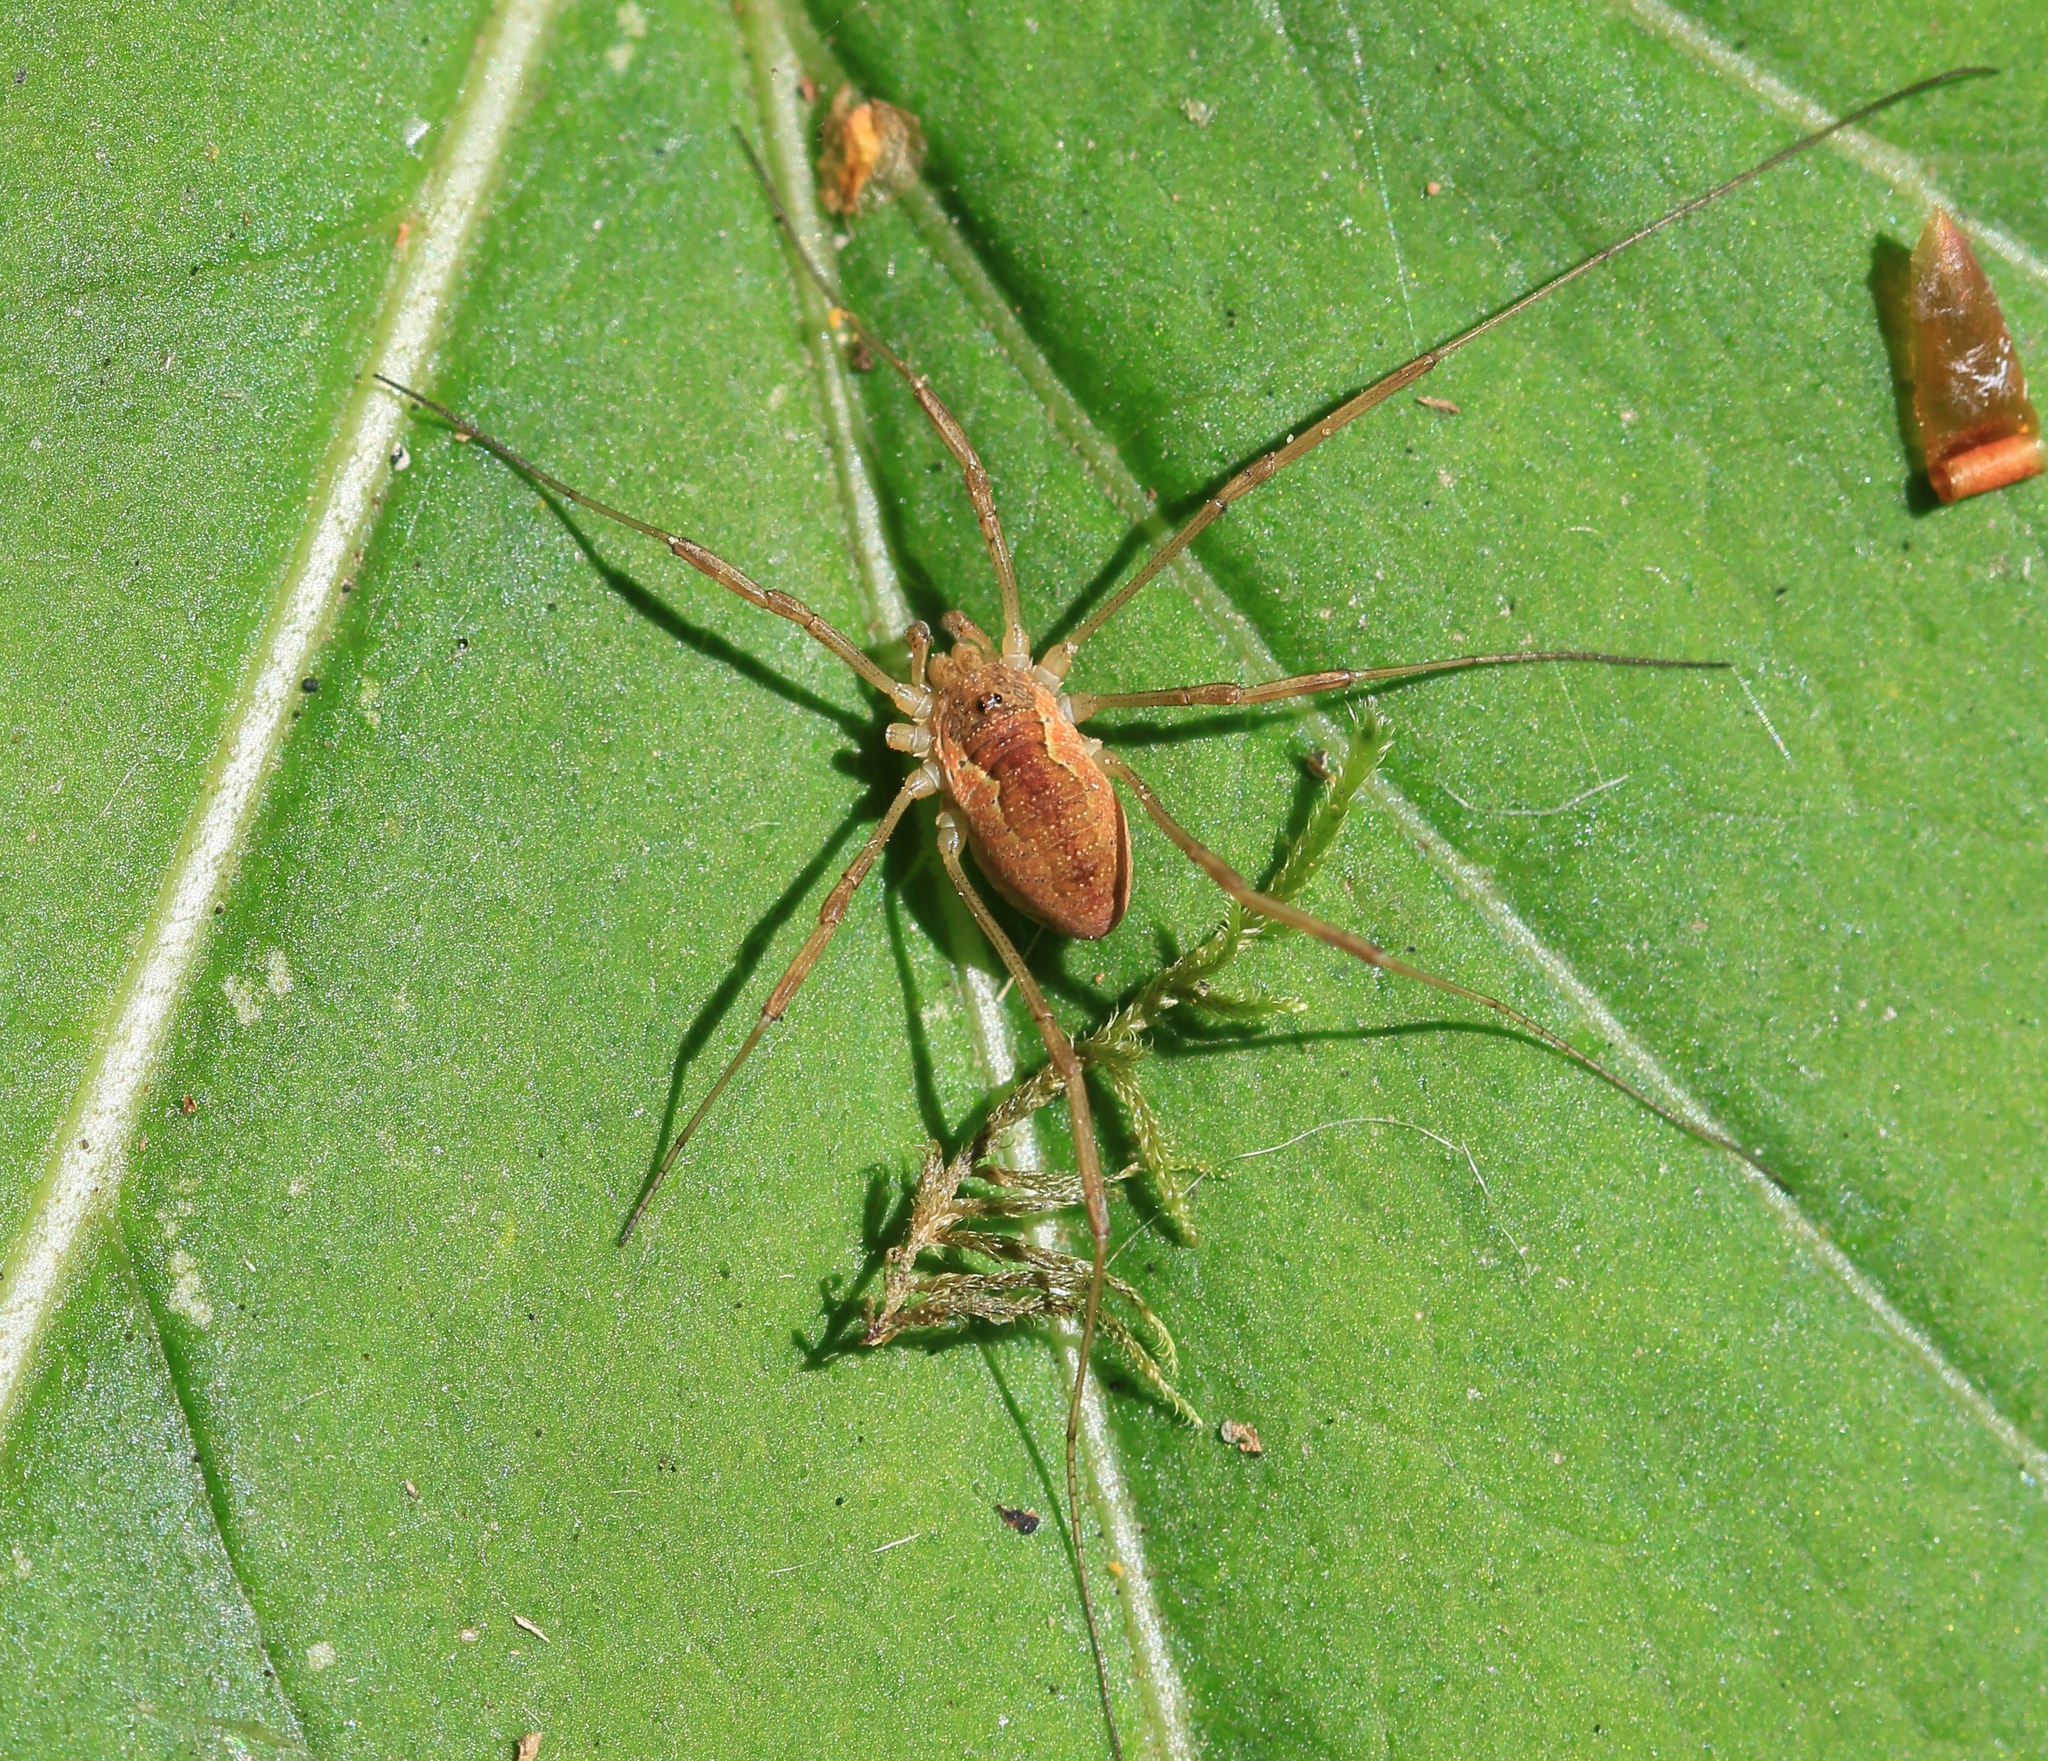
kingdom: Animalia
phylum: Arthropoda
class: Arachnida
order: Opiliones
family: Phalangiidae
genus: Mitopus
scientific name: Mitopus morio
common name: Saddleback harvestman
